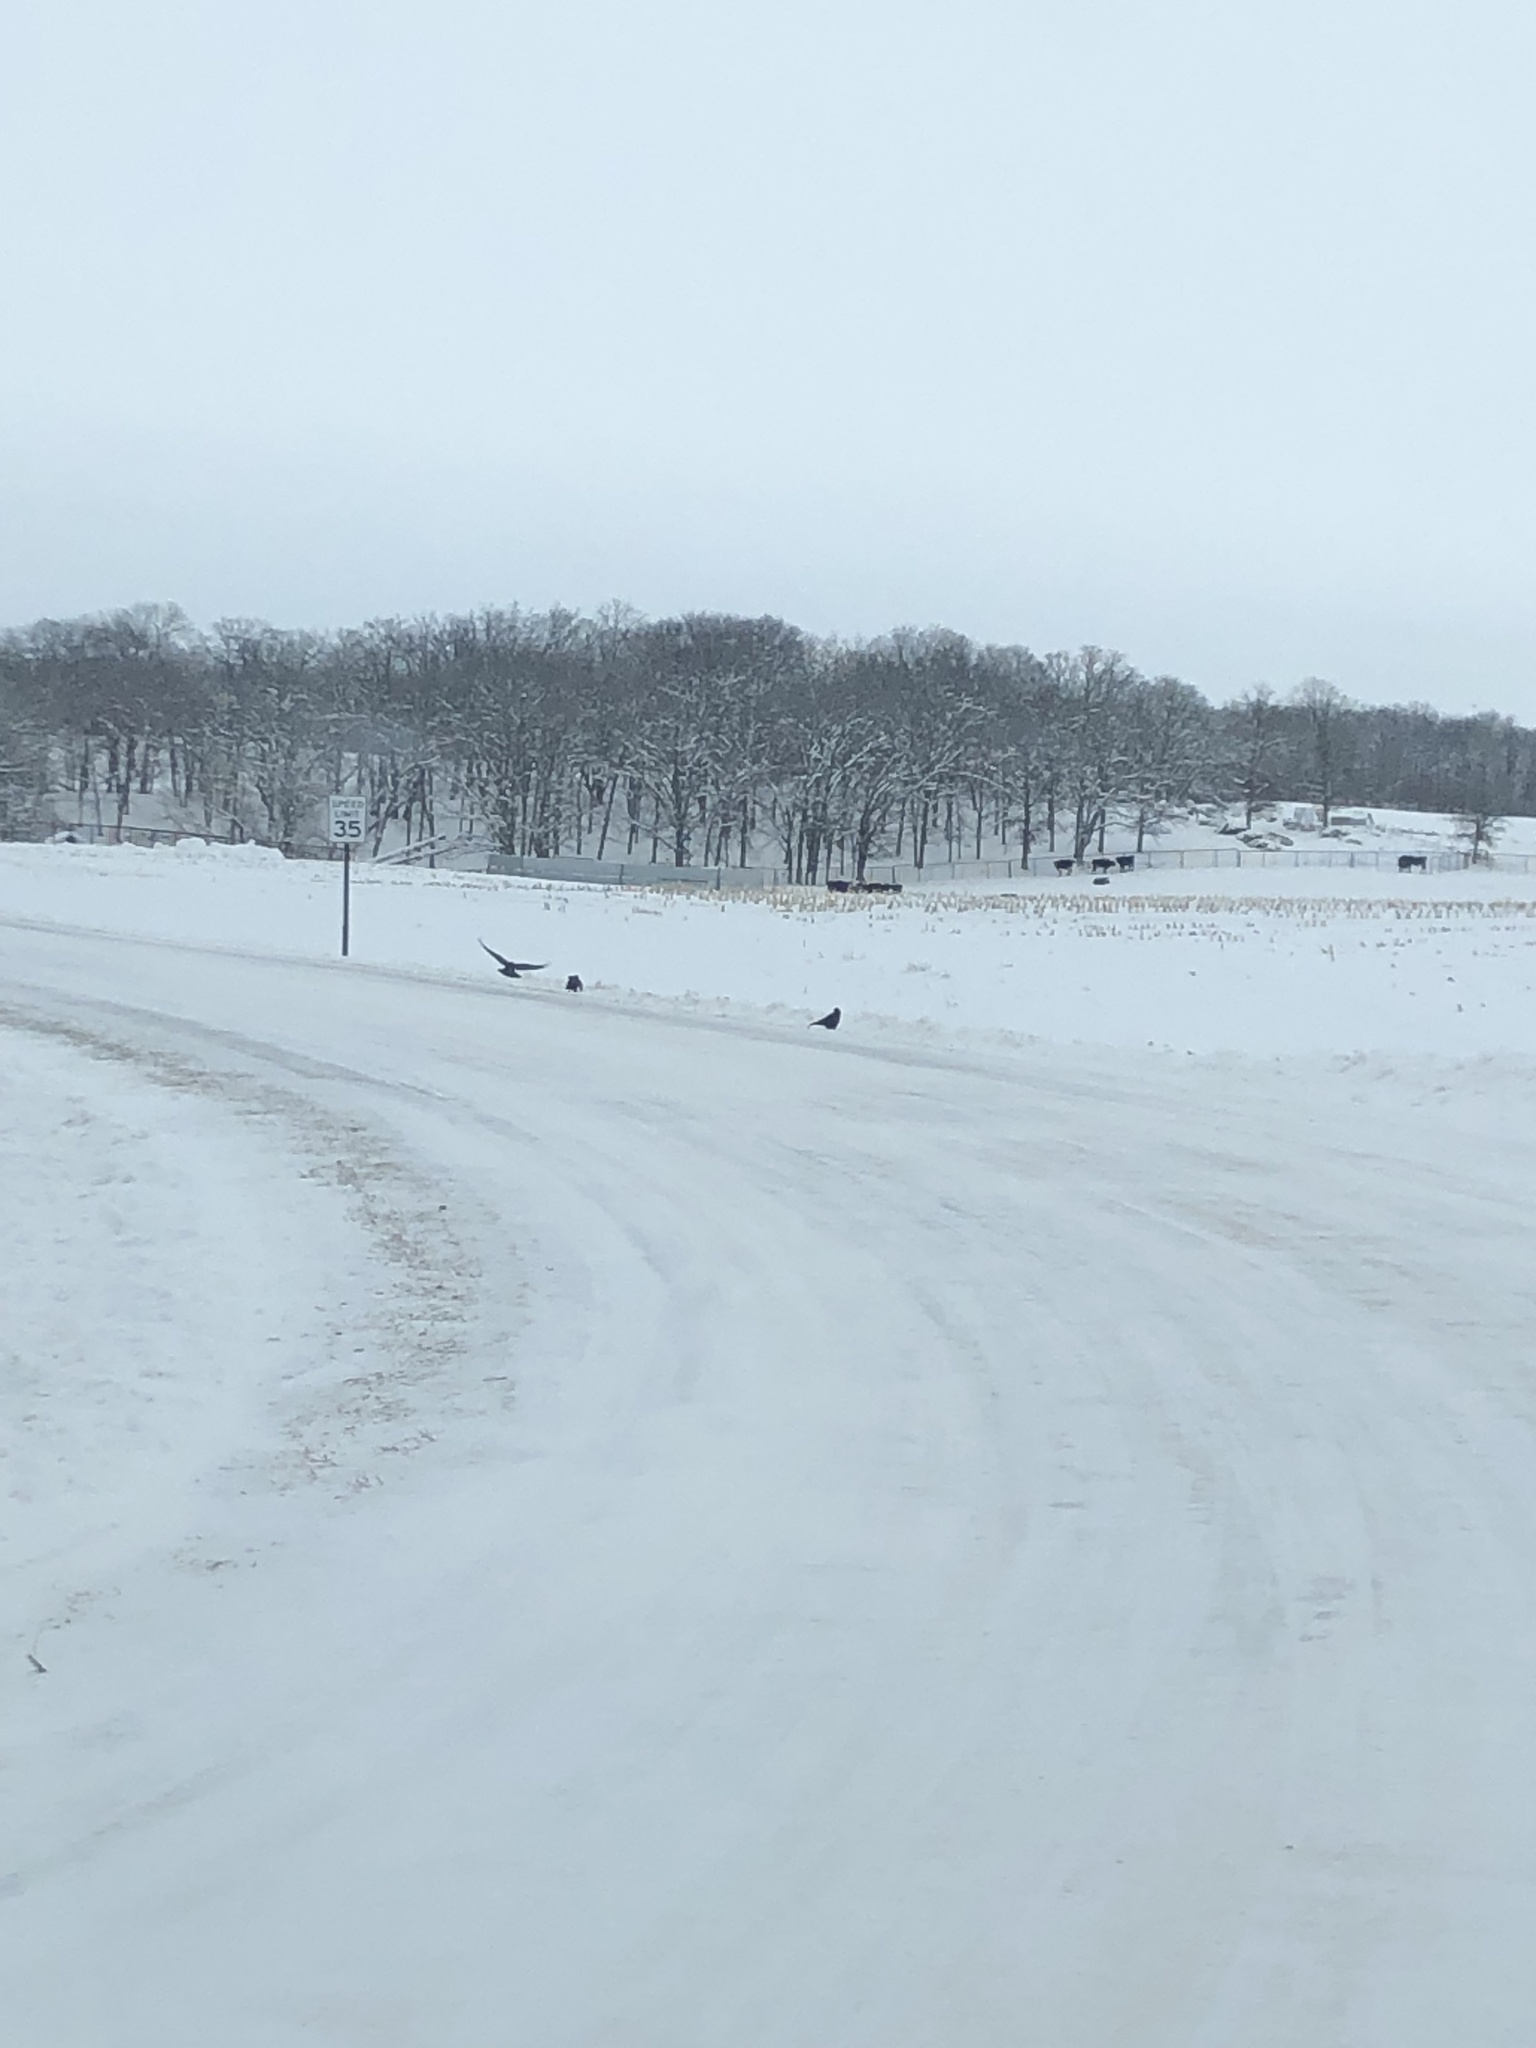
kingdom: Animalia
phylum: Chordata
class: Aves
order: Passeriformes
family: Corvidae
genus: Corvus
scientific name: Corvus brachyrhynchos
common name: American crow
